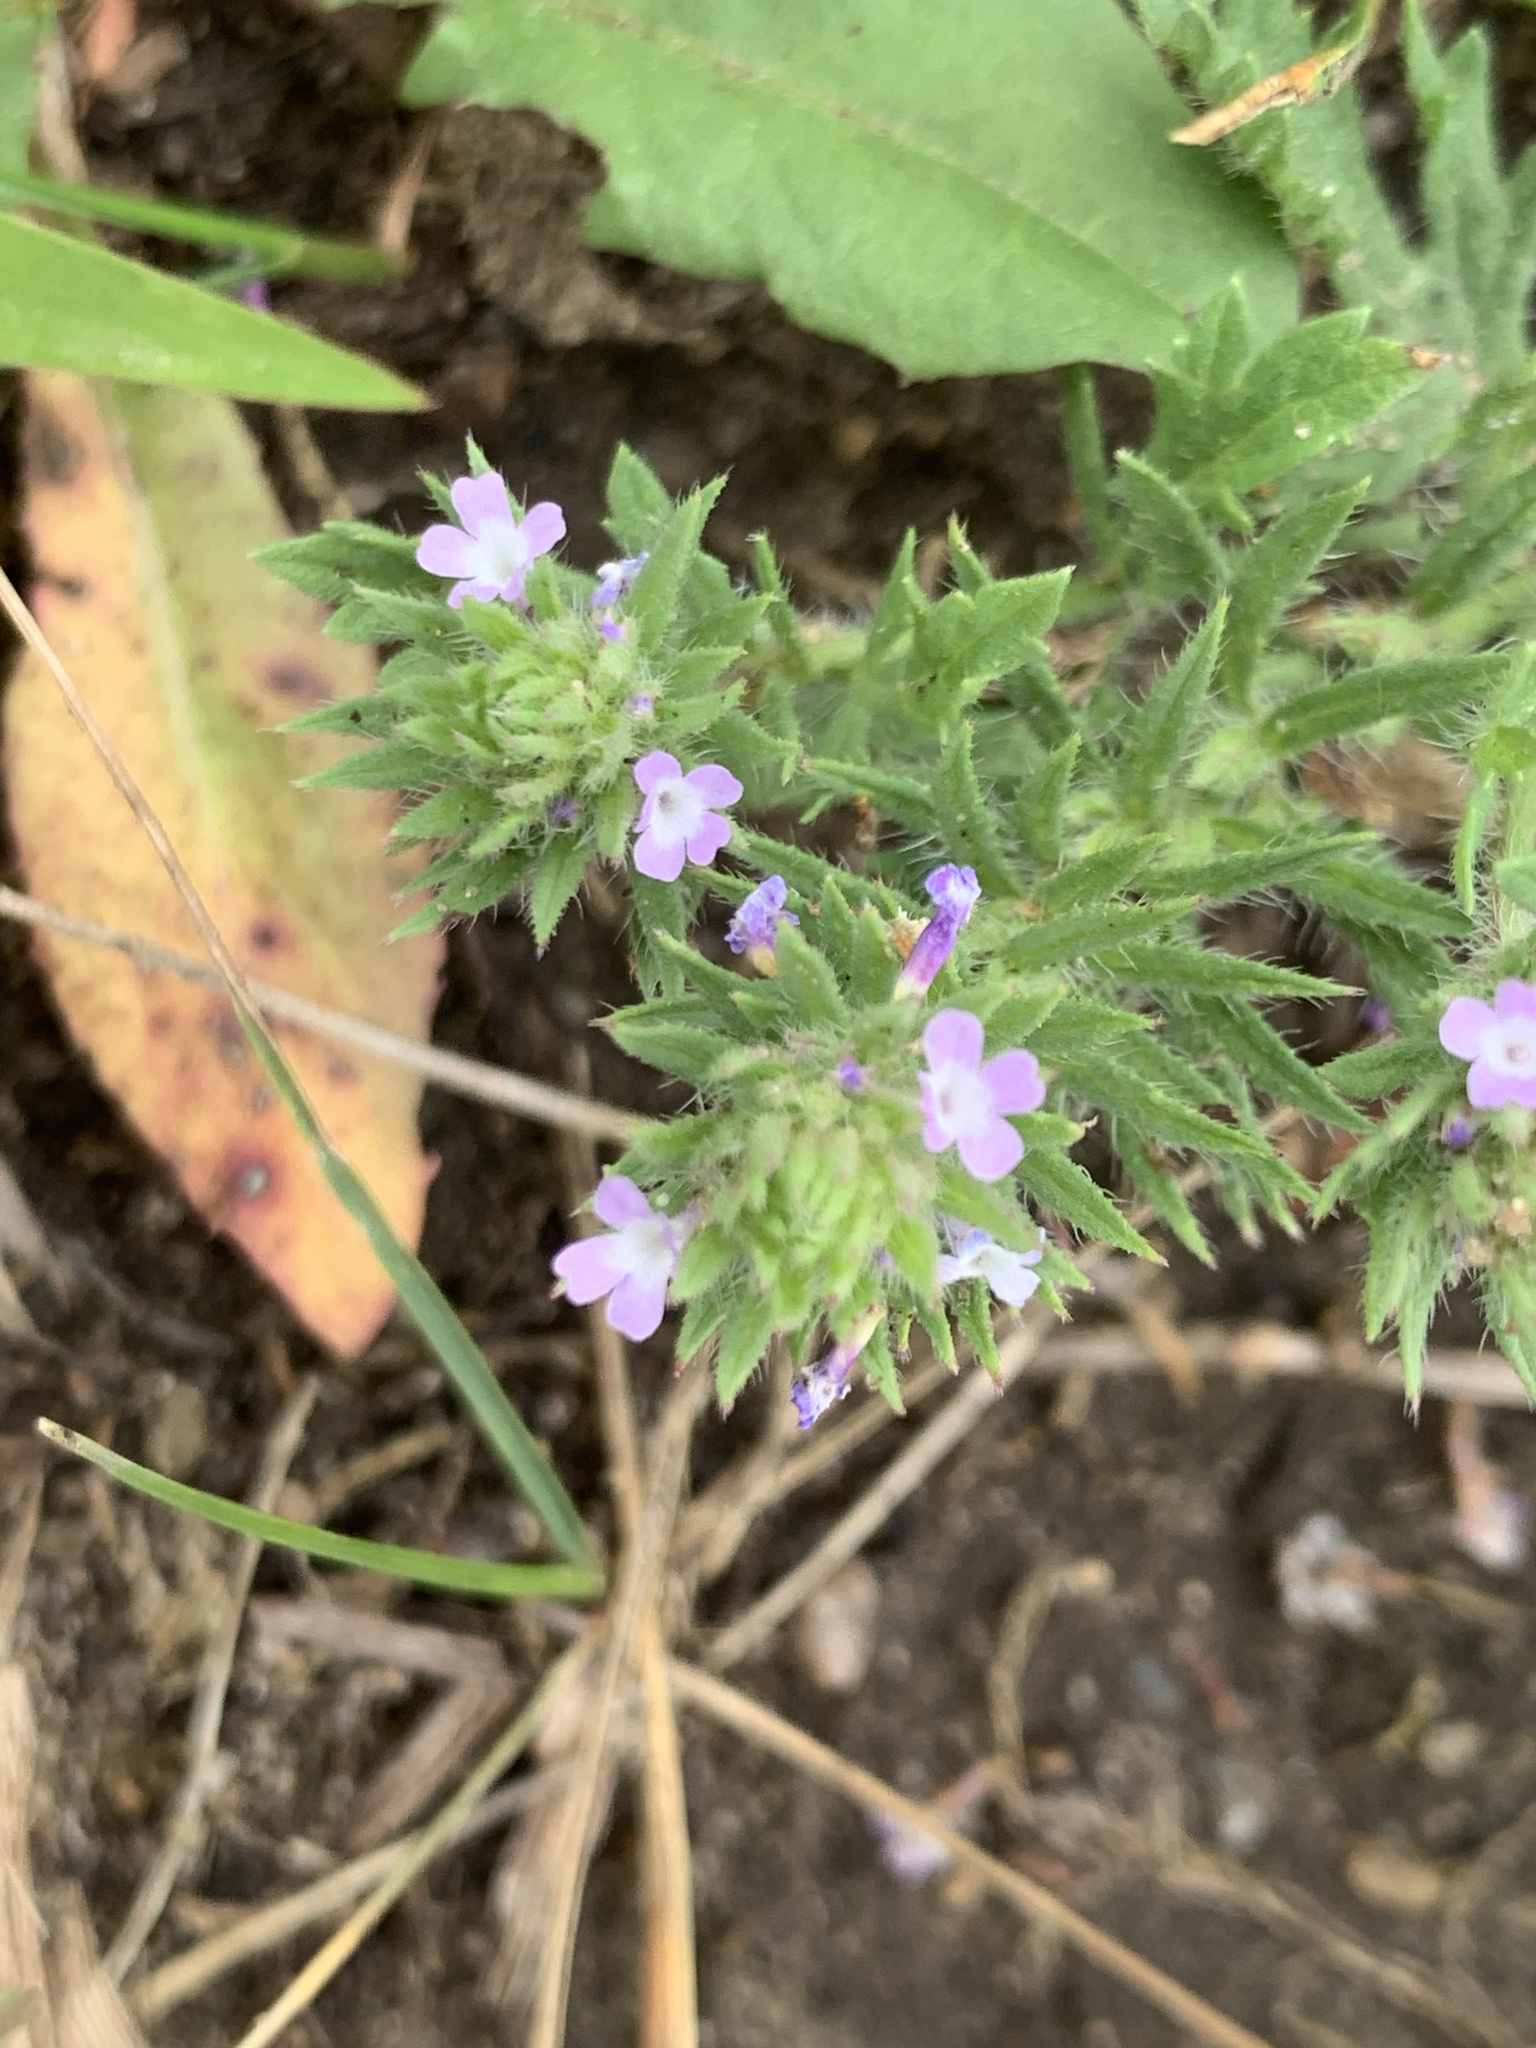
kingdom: Plantae
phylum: Tracheophyta
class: Magnoliopsida
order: Lamiales
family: Verbenaceae
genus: Verbena
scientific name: Verbena bracteata
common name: Bracted vervain
